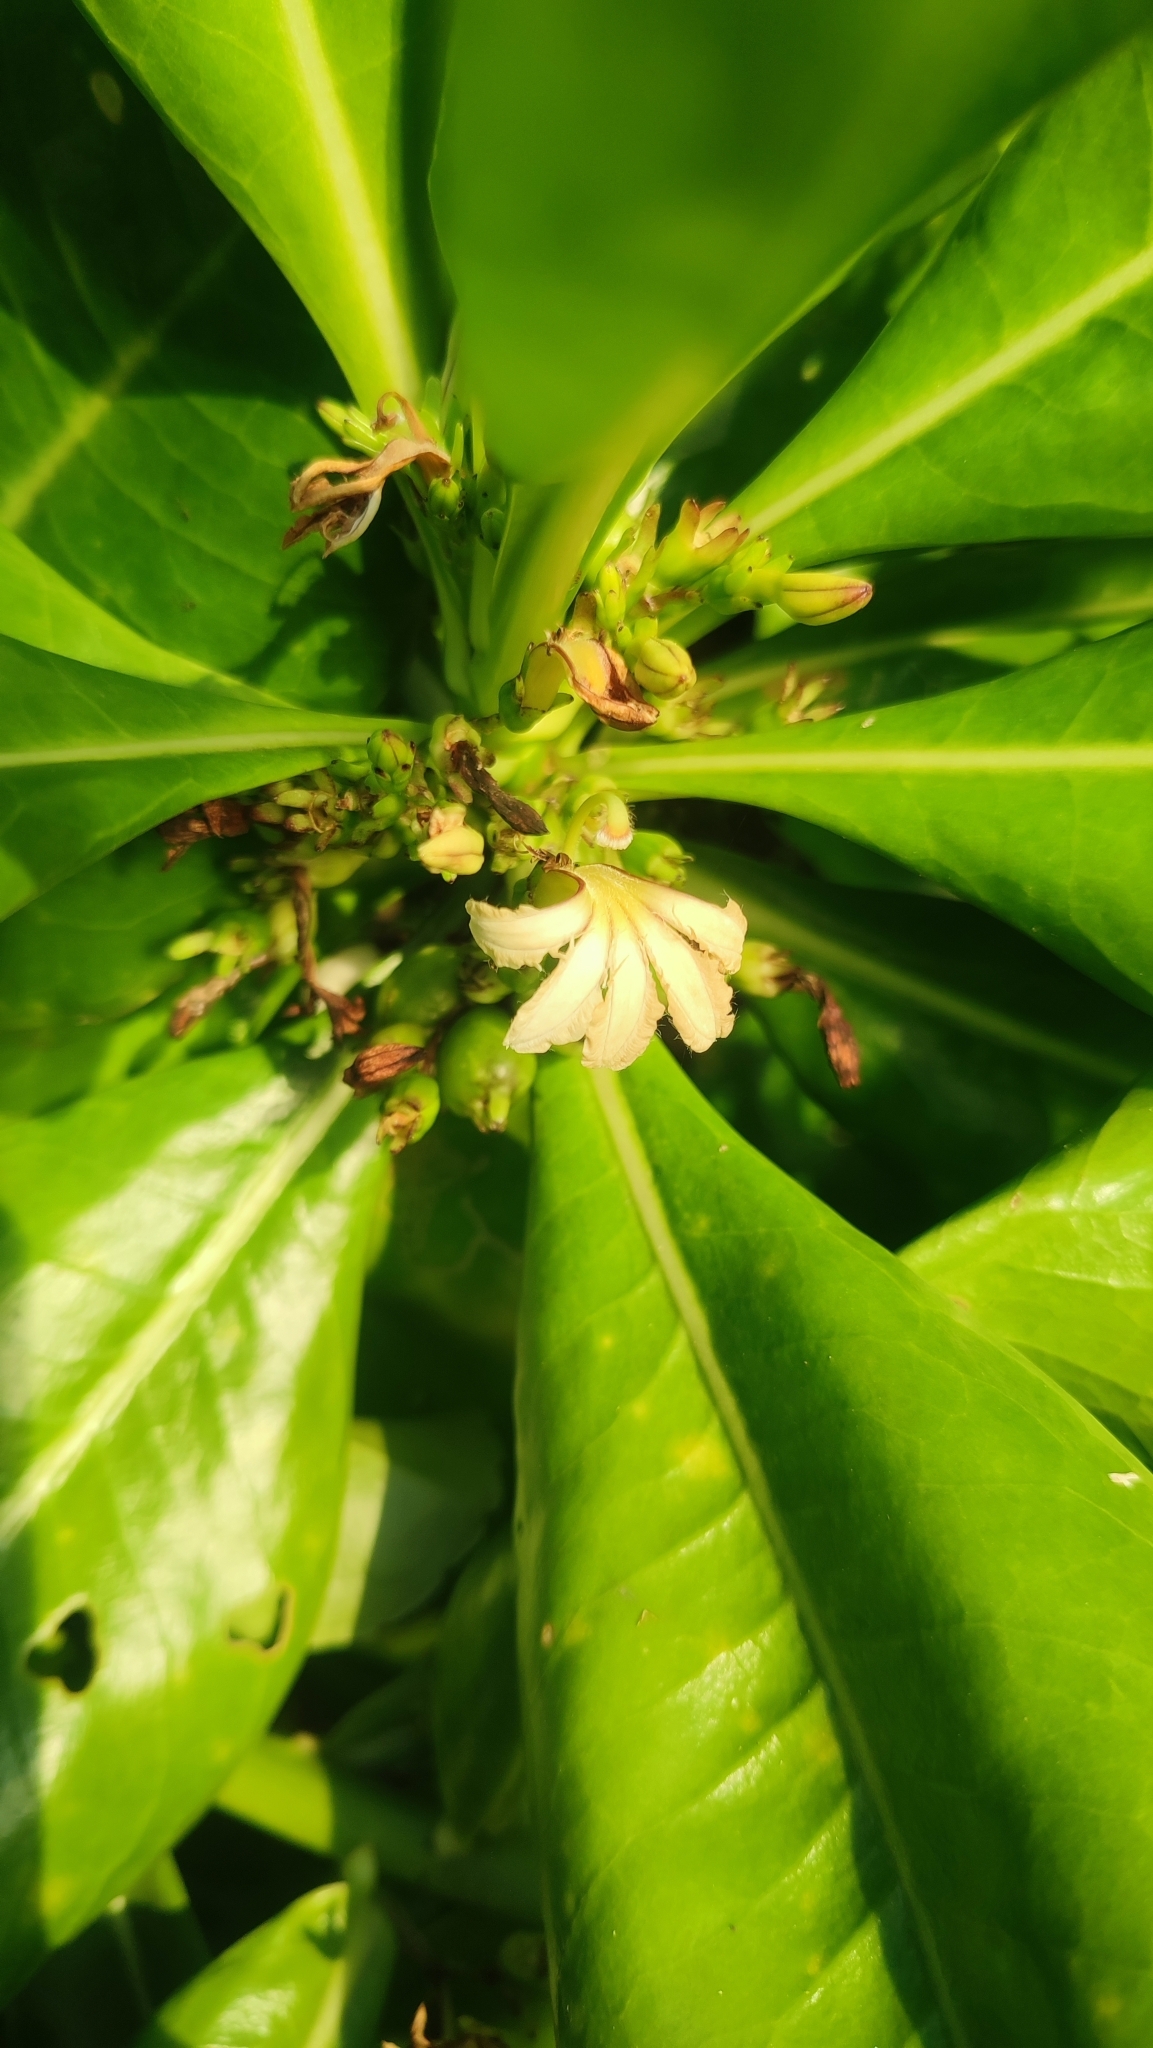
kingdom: Plantae
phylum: Tracheophyta
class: Magnoliopsida
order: Asterales
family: Goodeniaceae
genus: Scaevola
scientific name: Scaevola taccada
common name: Sea lettucetree
